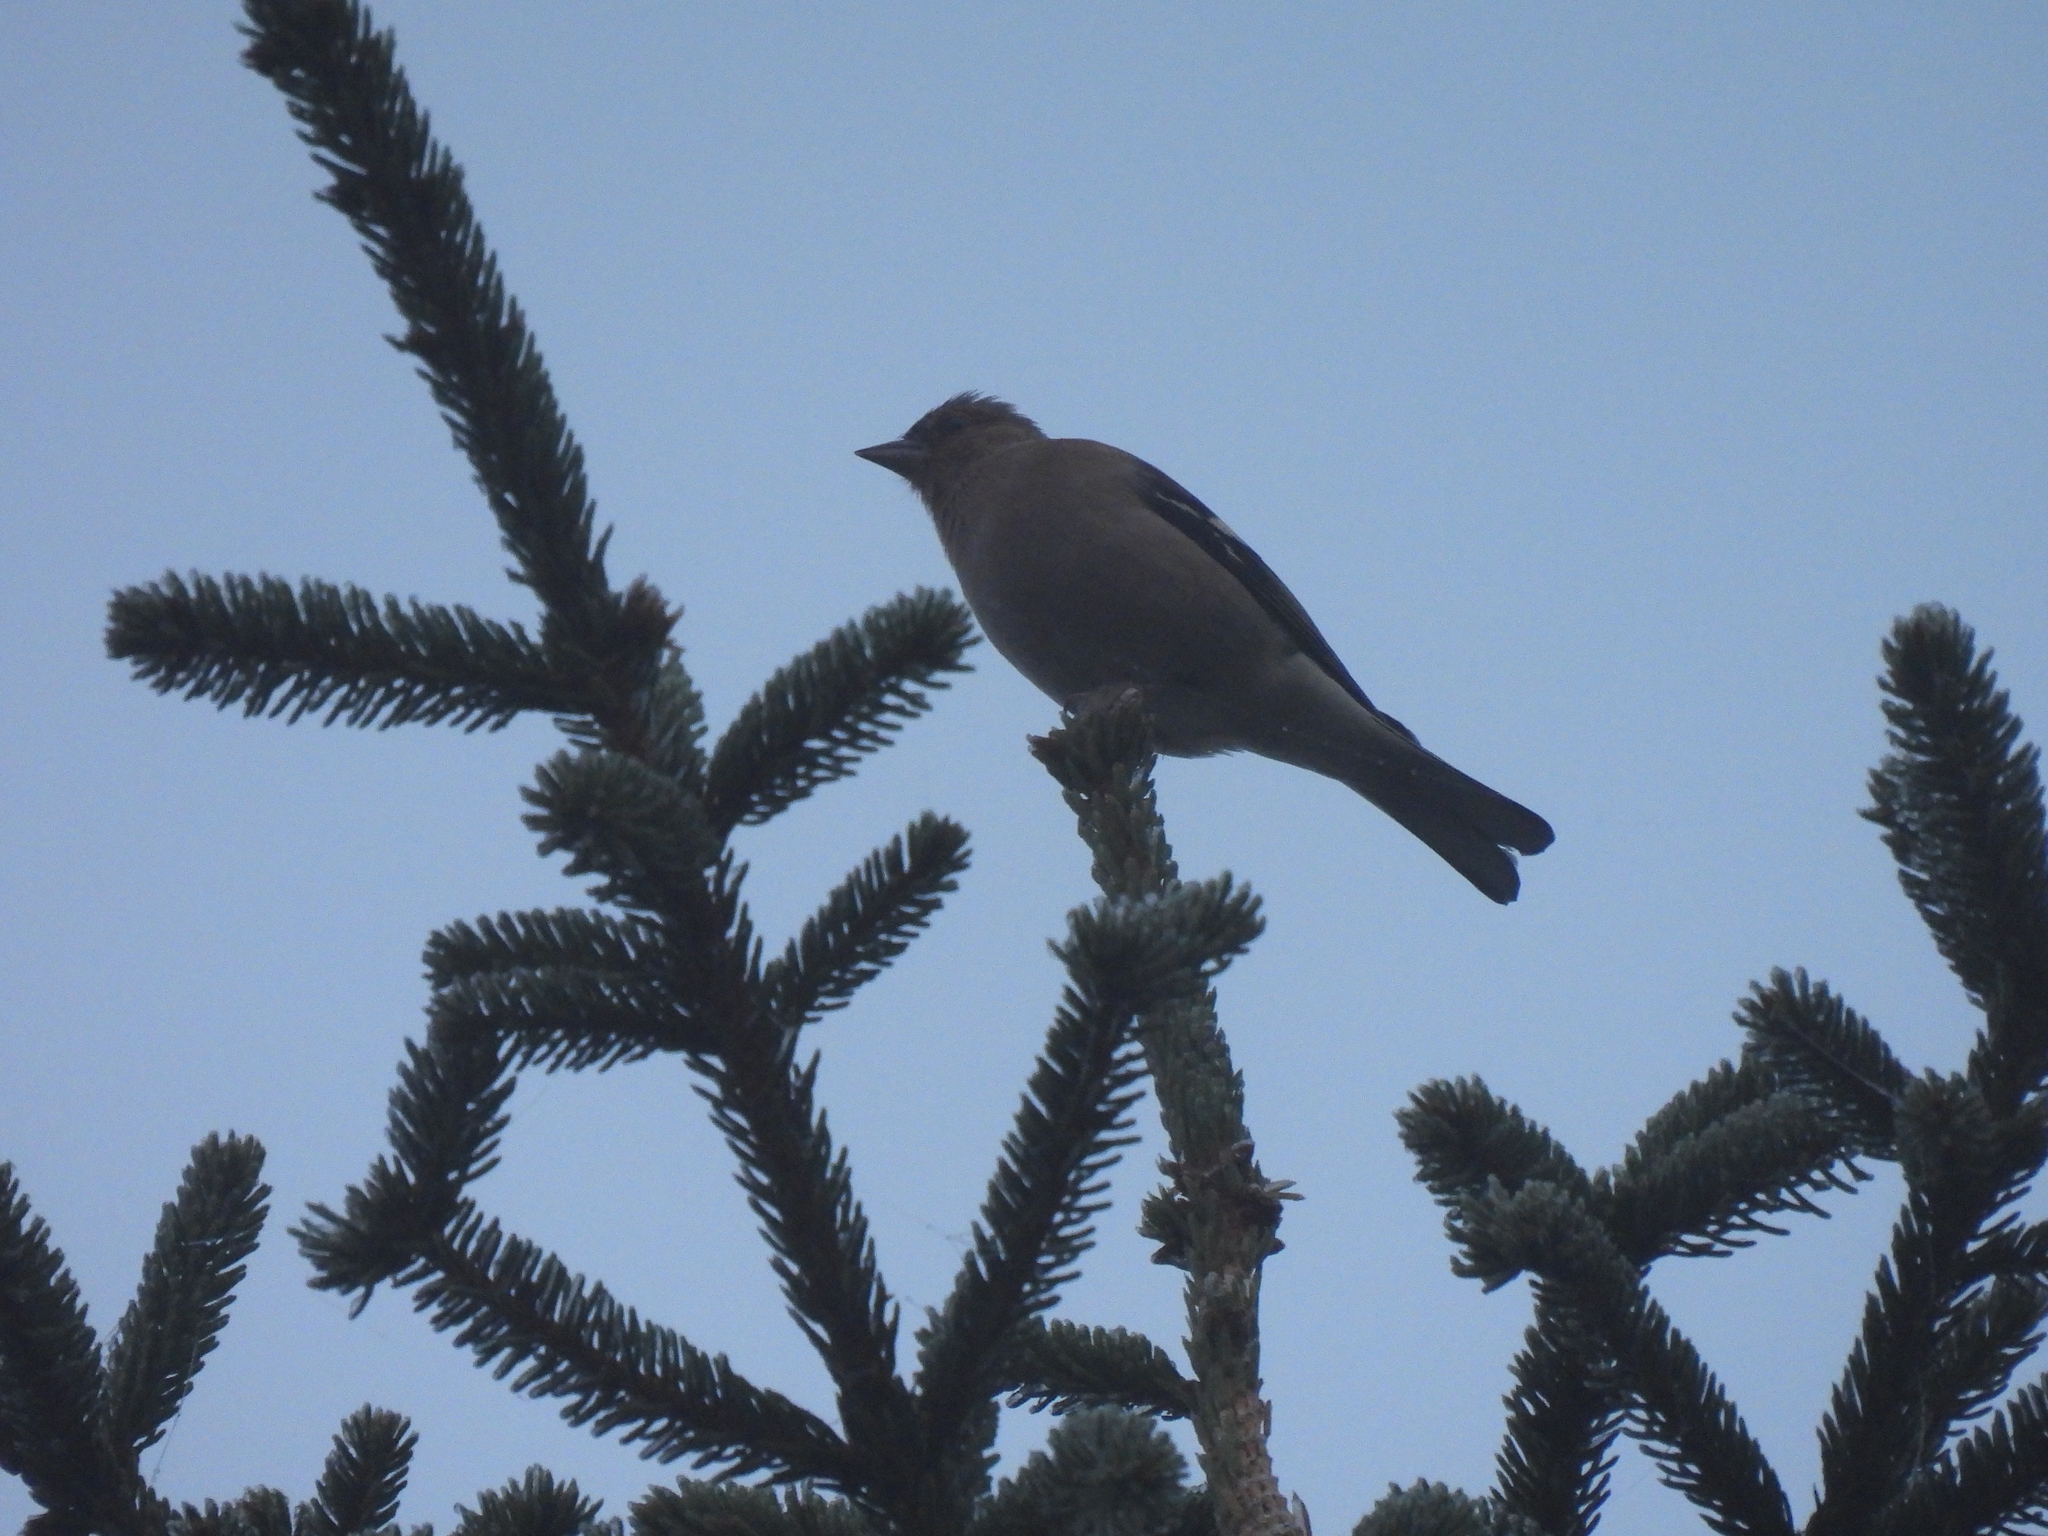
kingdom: Animalia
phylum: Chordata
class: Aves
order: Passeriformes
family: Fringillidae
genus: Fringilla
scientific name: Fringilla coelebs
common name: Common chaffinch
